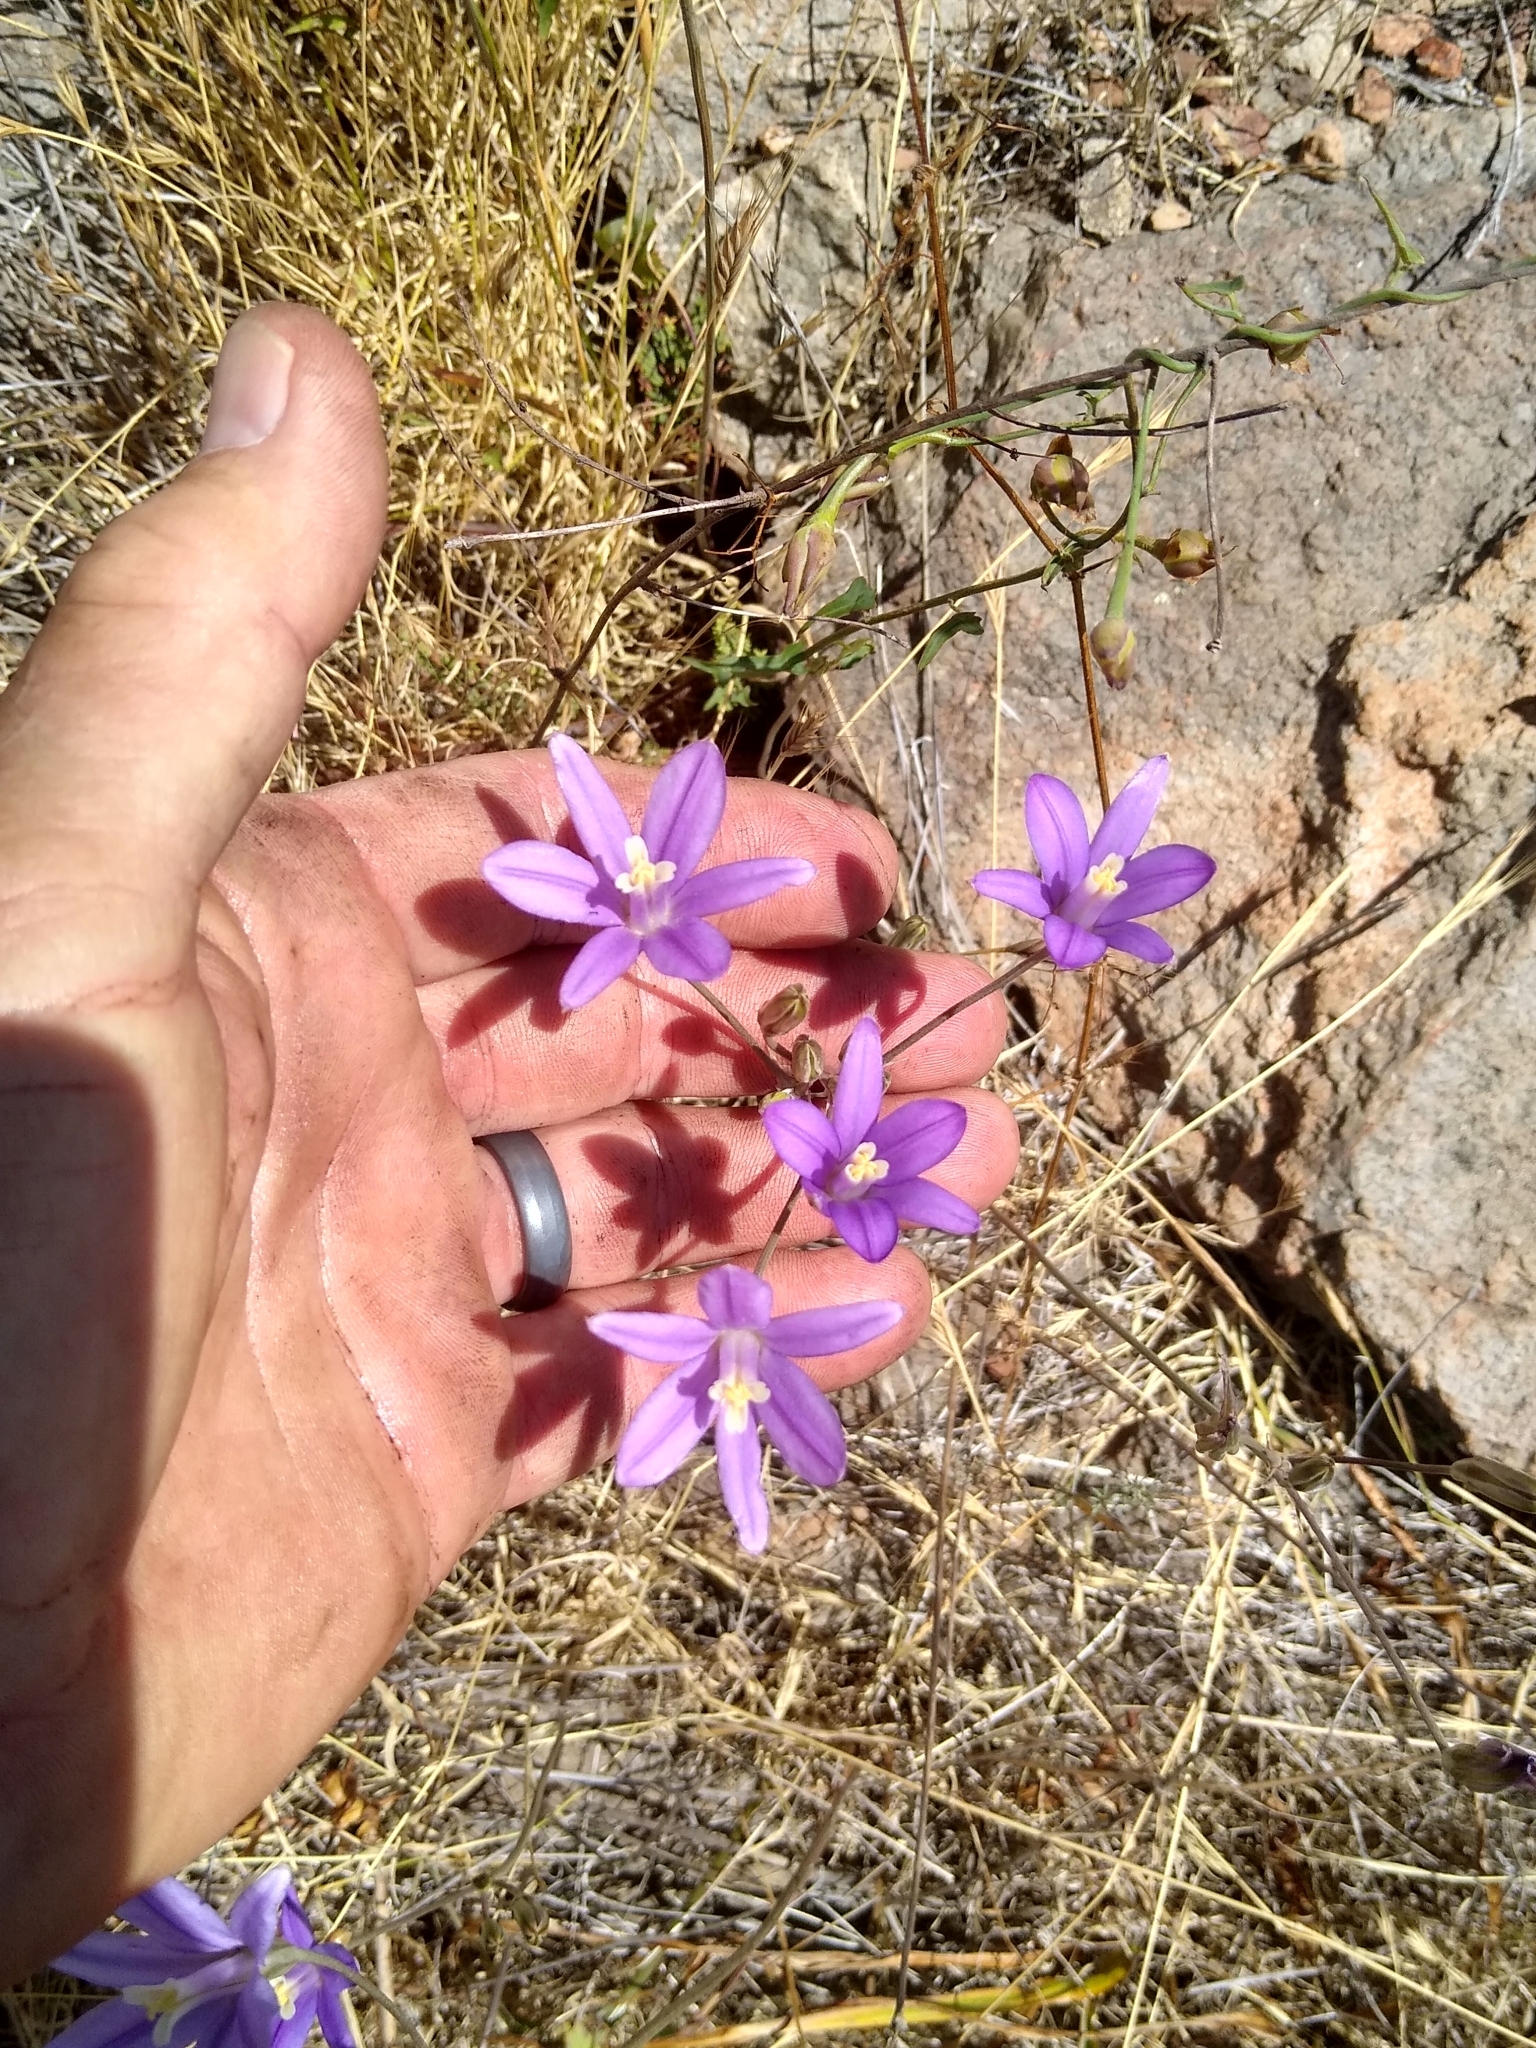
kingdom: Plantae
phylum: Tracheophyta
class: Liliopsida
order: Asparagales
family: Asparagaceae
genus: Brodiaea
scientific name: Brodiaea californica
